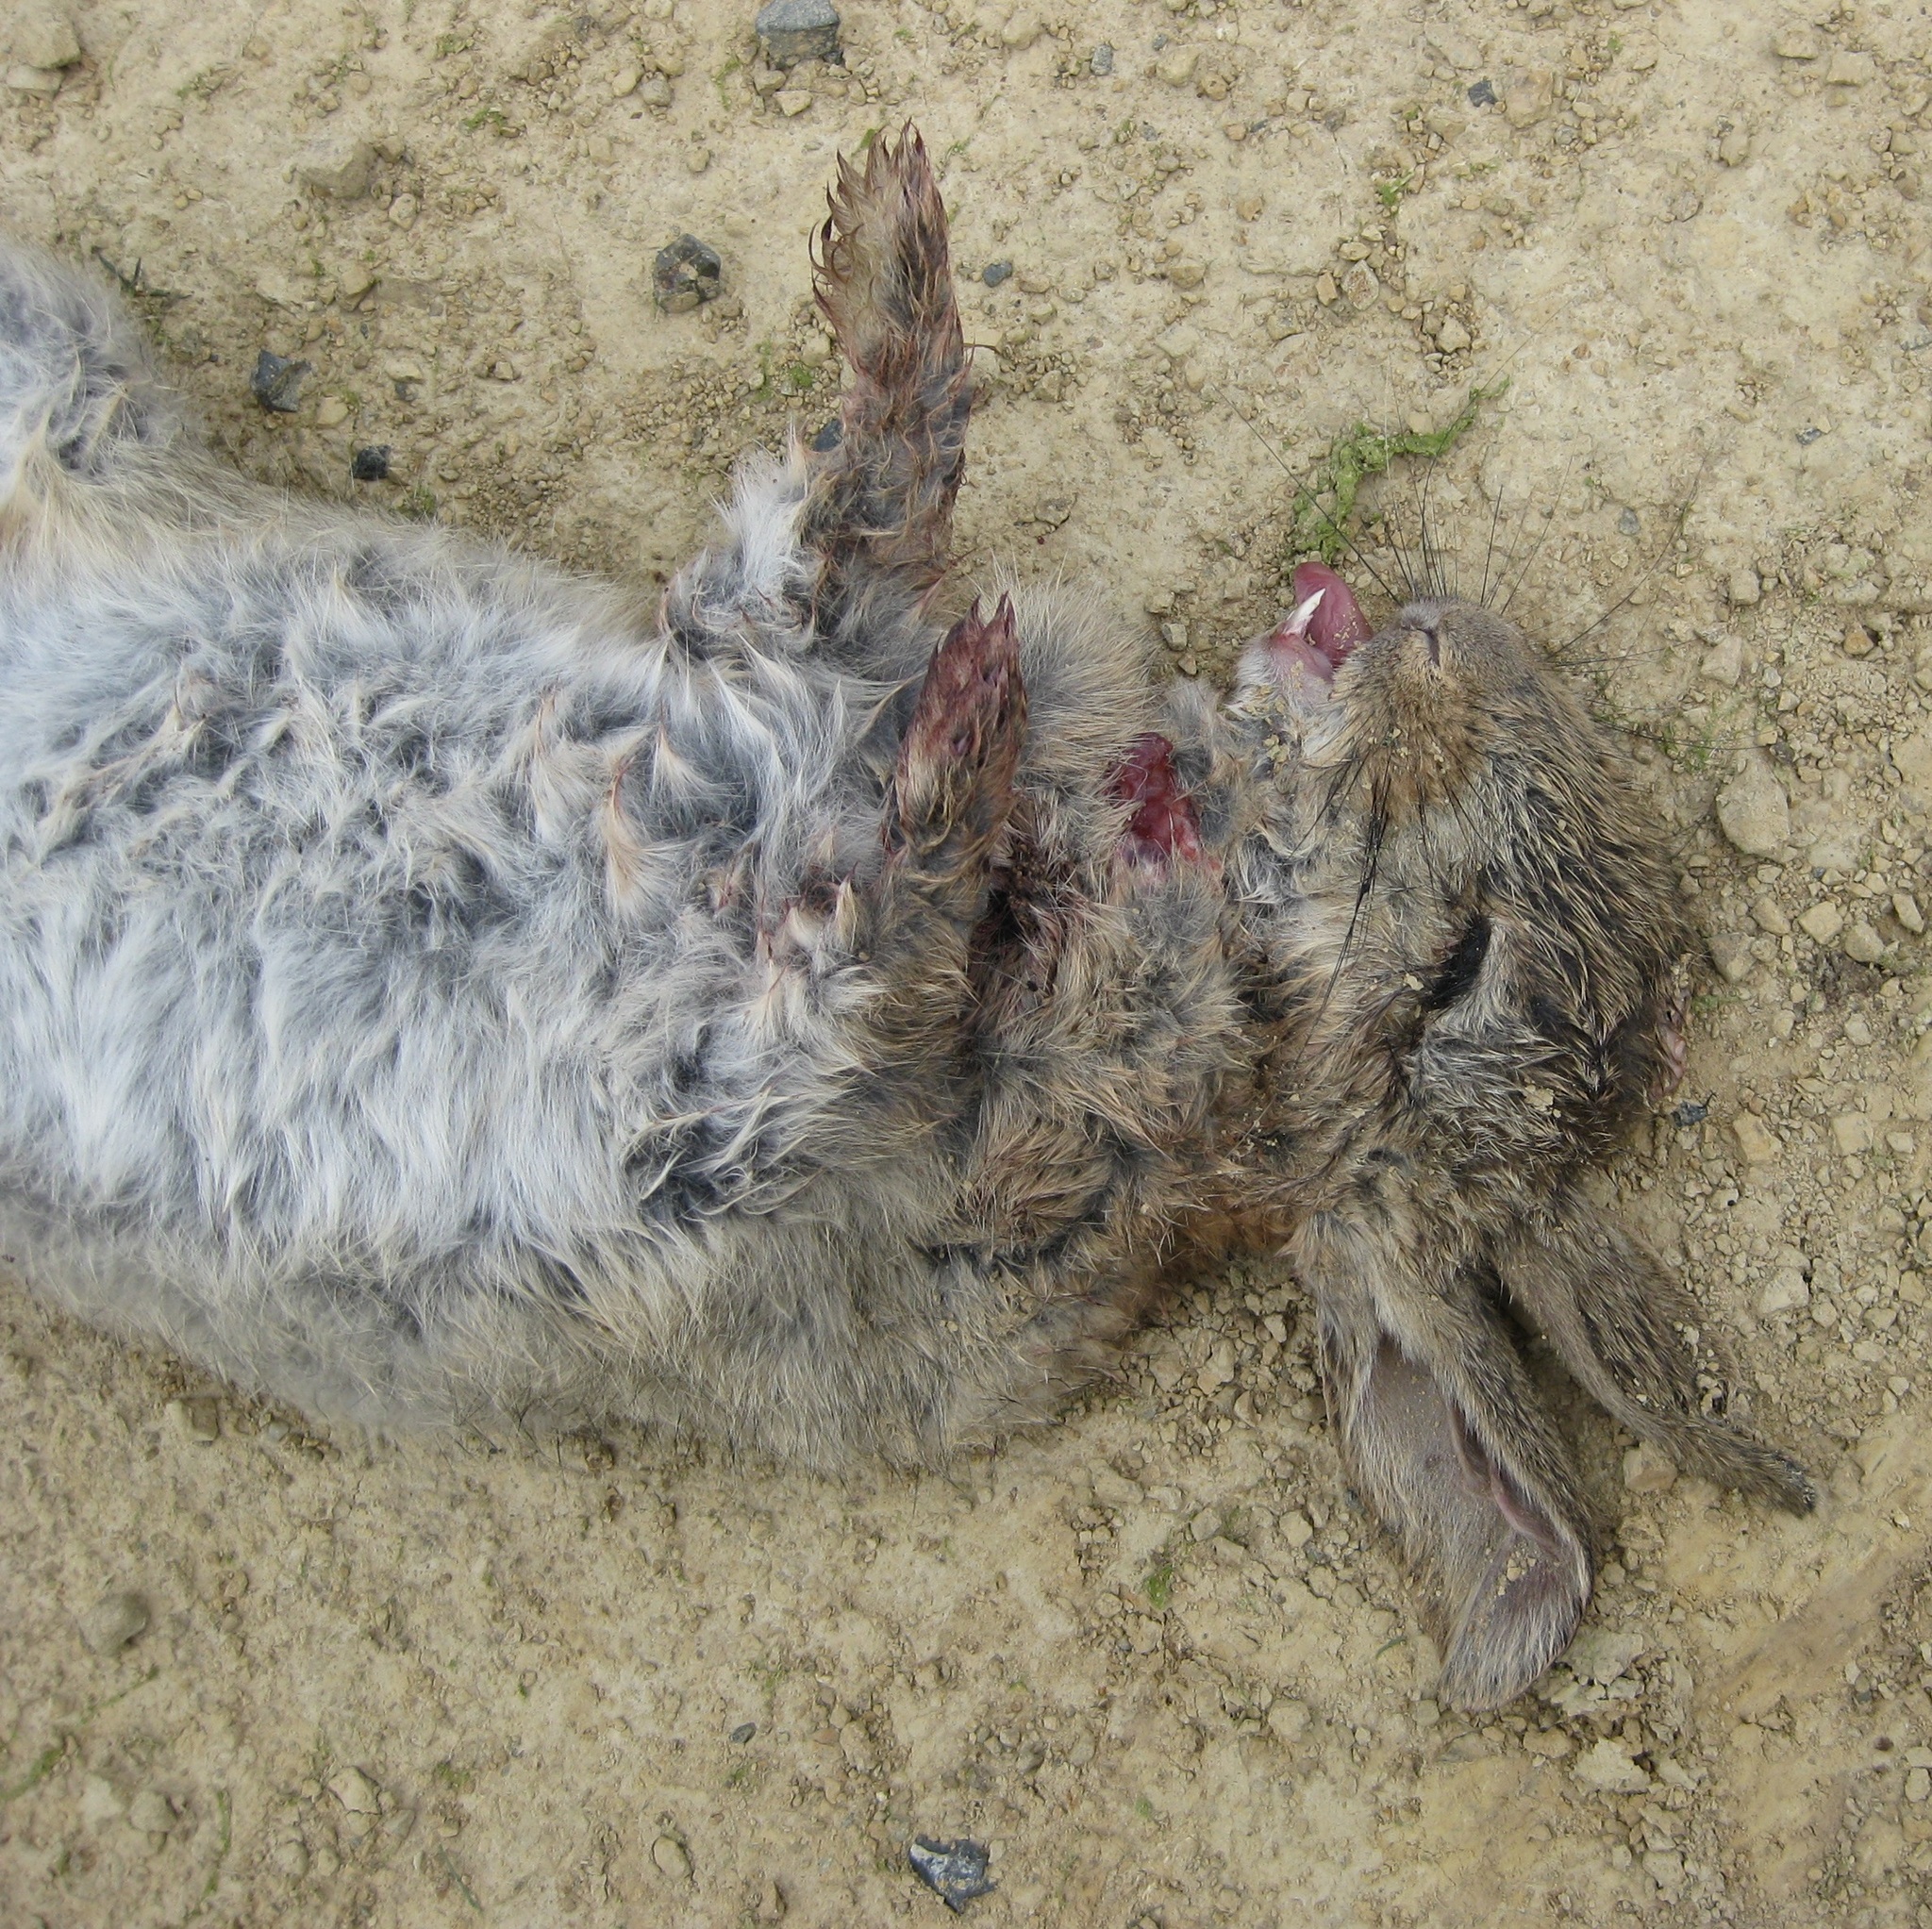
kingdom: Animalia
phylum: Chordata
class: Mammalia
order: Lagomorpha
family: Leporidae
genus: Oryctolagus
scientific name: Oryctolagus cuniculus
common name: European rabbit
